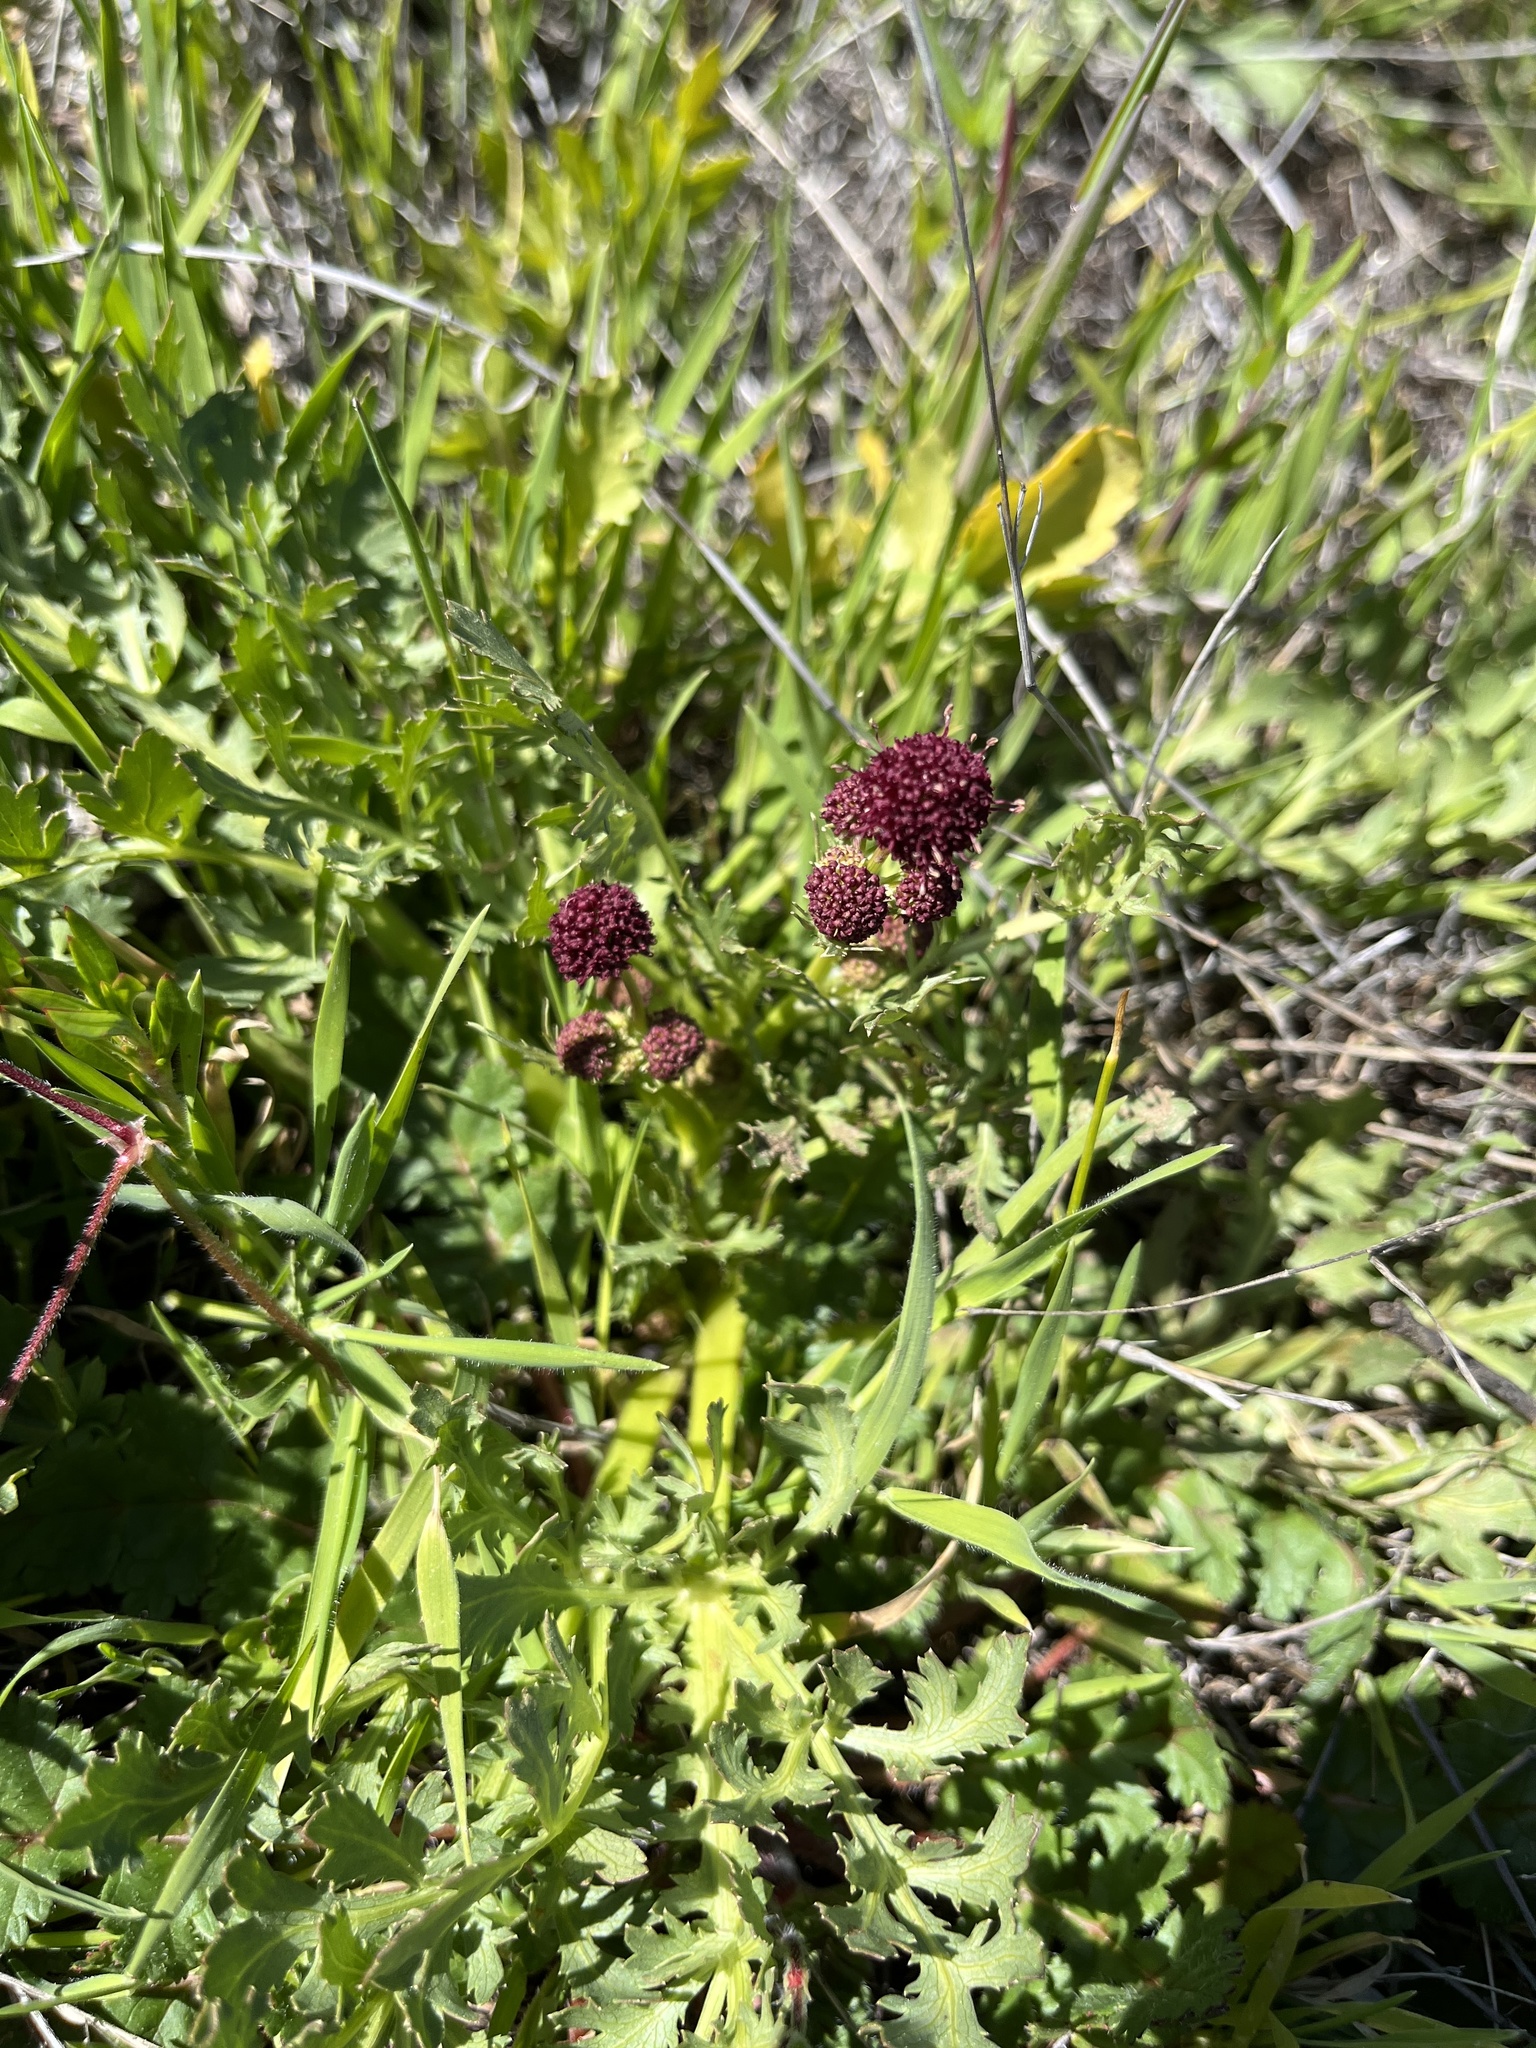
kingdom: Plantae
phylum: Tracheophyta
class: Magnoliopsida
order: Apiales
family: Apiaceae
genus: Sanicula
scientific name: Sanicula bipinnatifida
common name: Shoe-buttons
